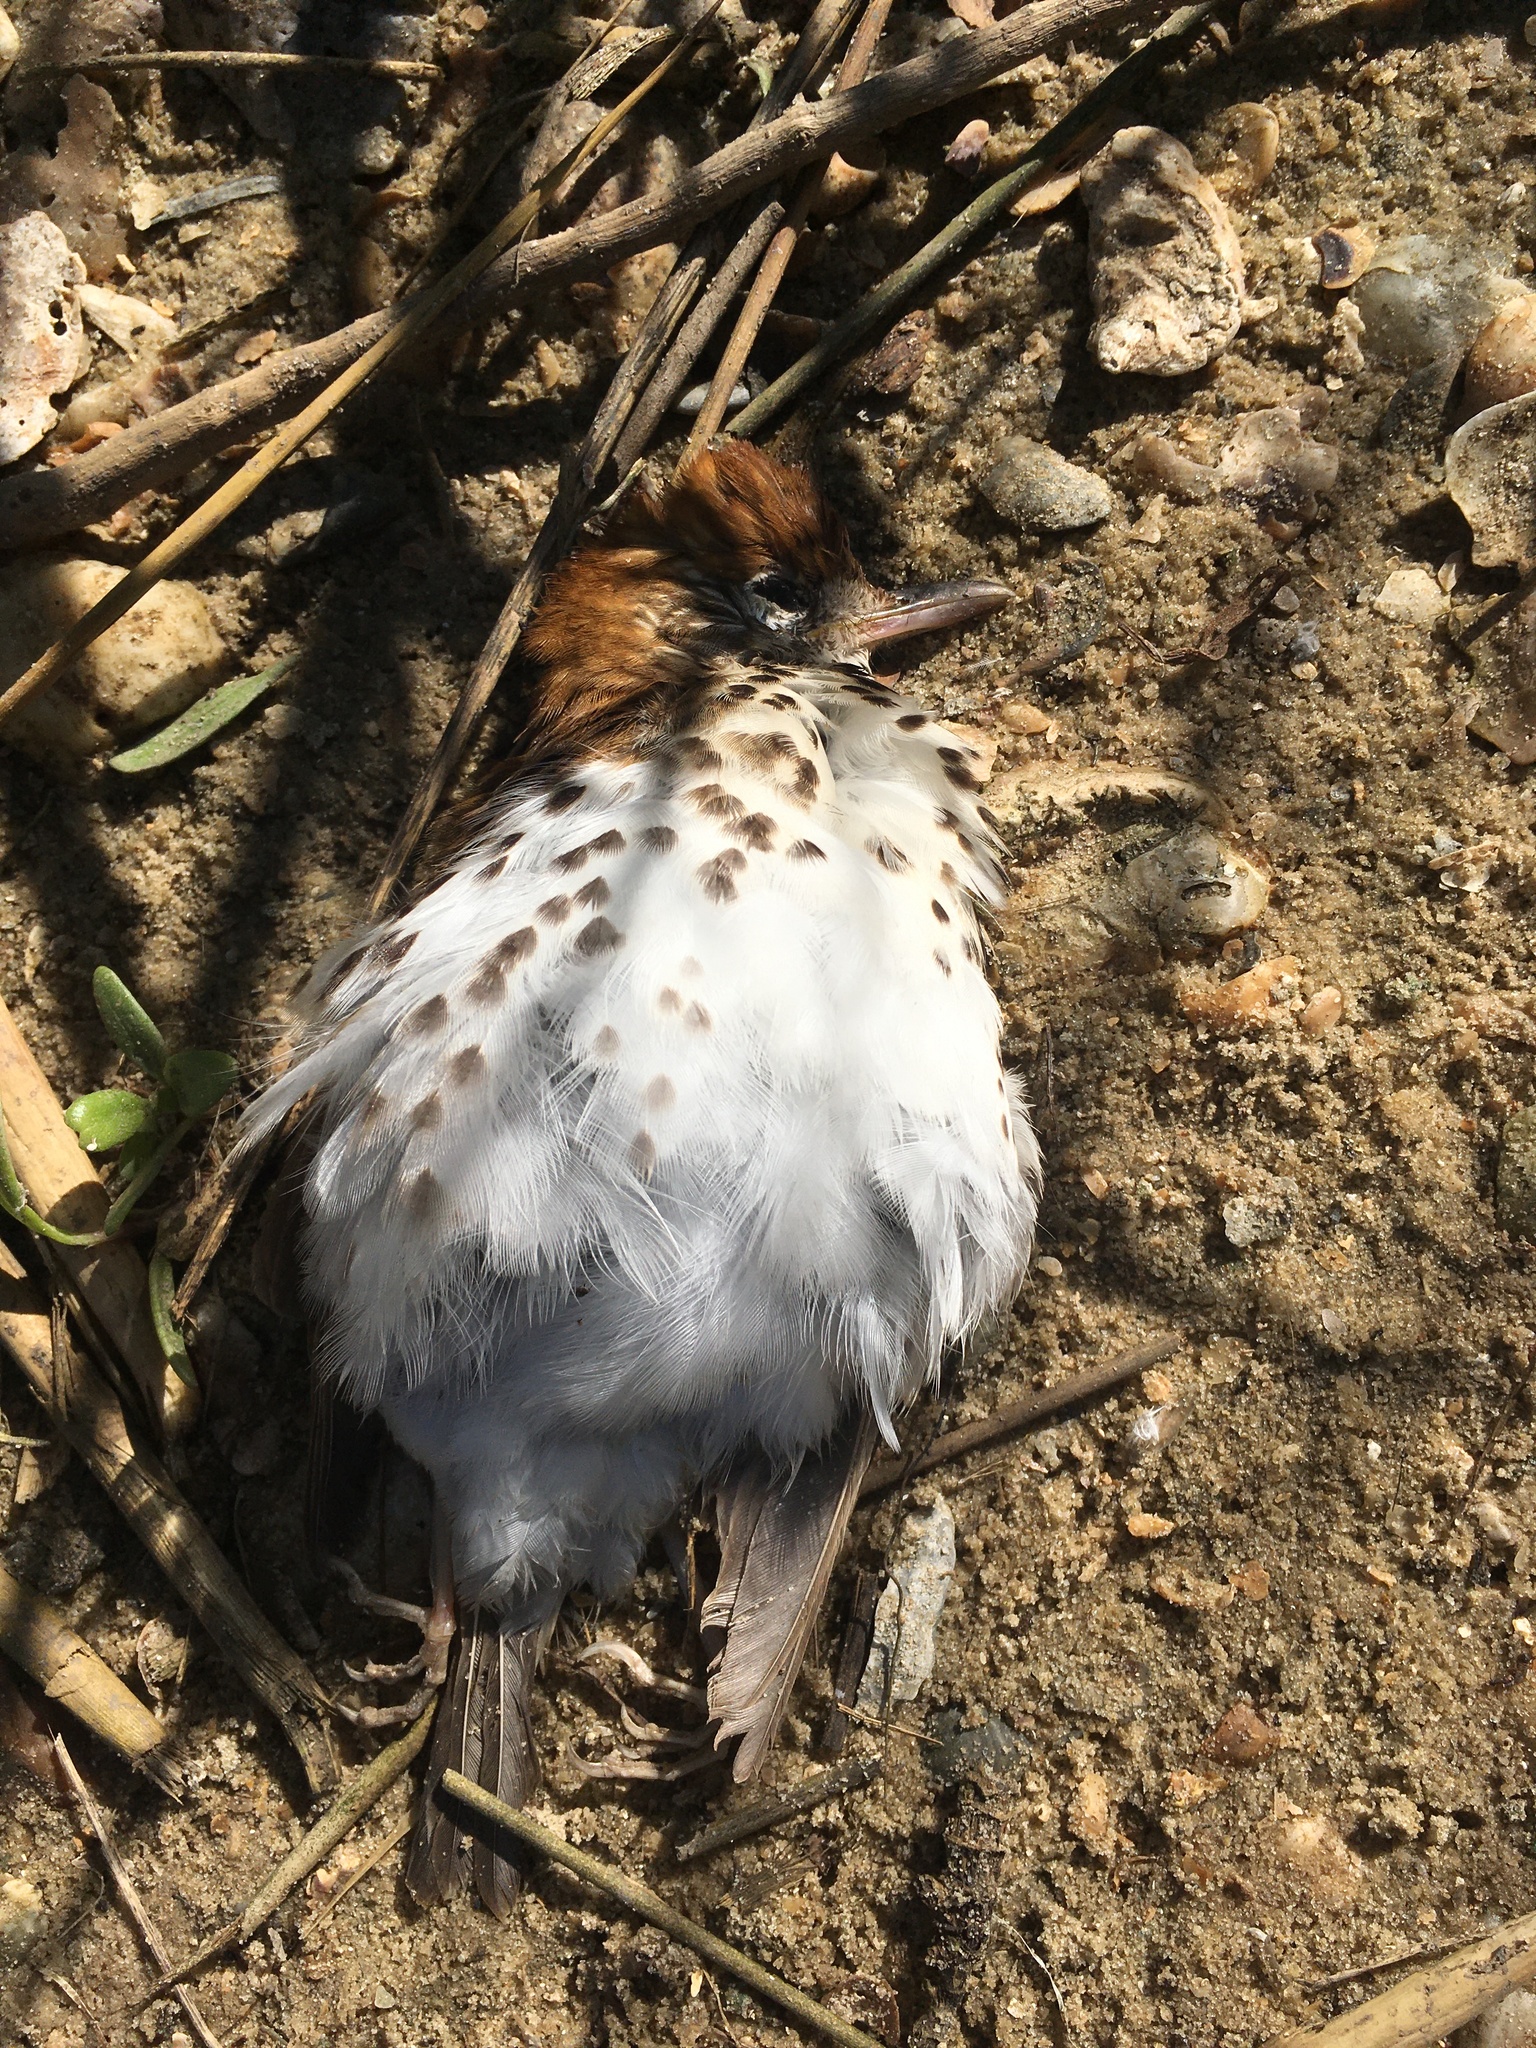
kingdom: Animalia
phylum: Chordata
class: Aves
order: Passeriformes
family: Turdidae
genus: Hylocichla
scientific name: Hylocichla mustelina
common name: Wood thrush
